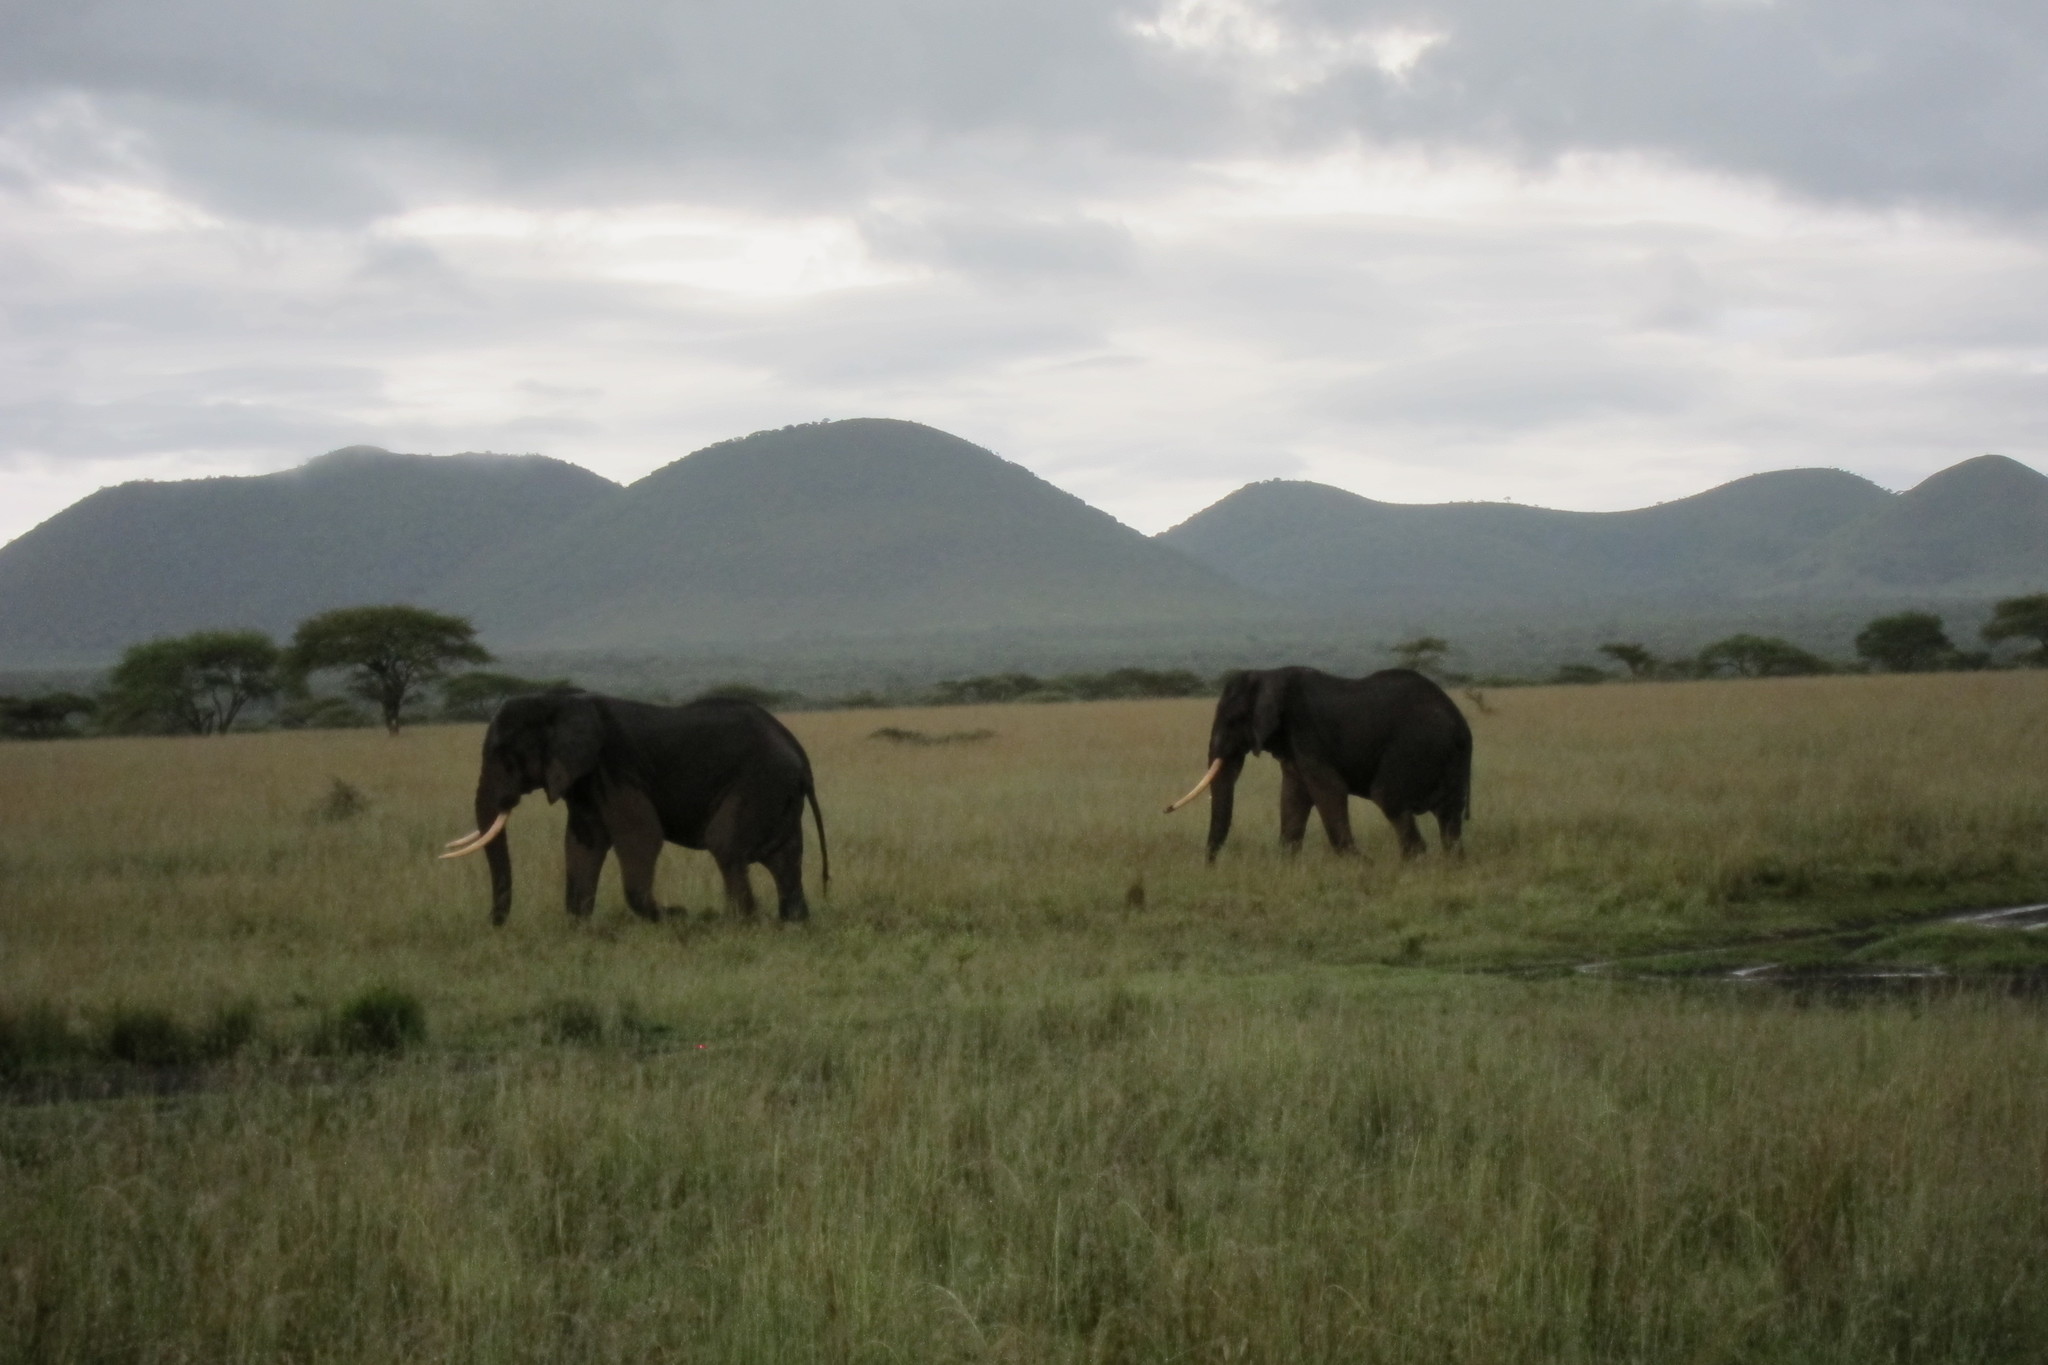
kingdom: Animalia
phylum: Chordata
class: Mammalia
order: Proboscidea
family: Elephantidae
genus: Loxodonta
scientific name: Loxodonta africana
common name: African elephant
